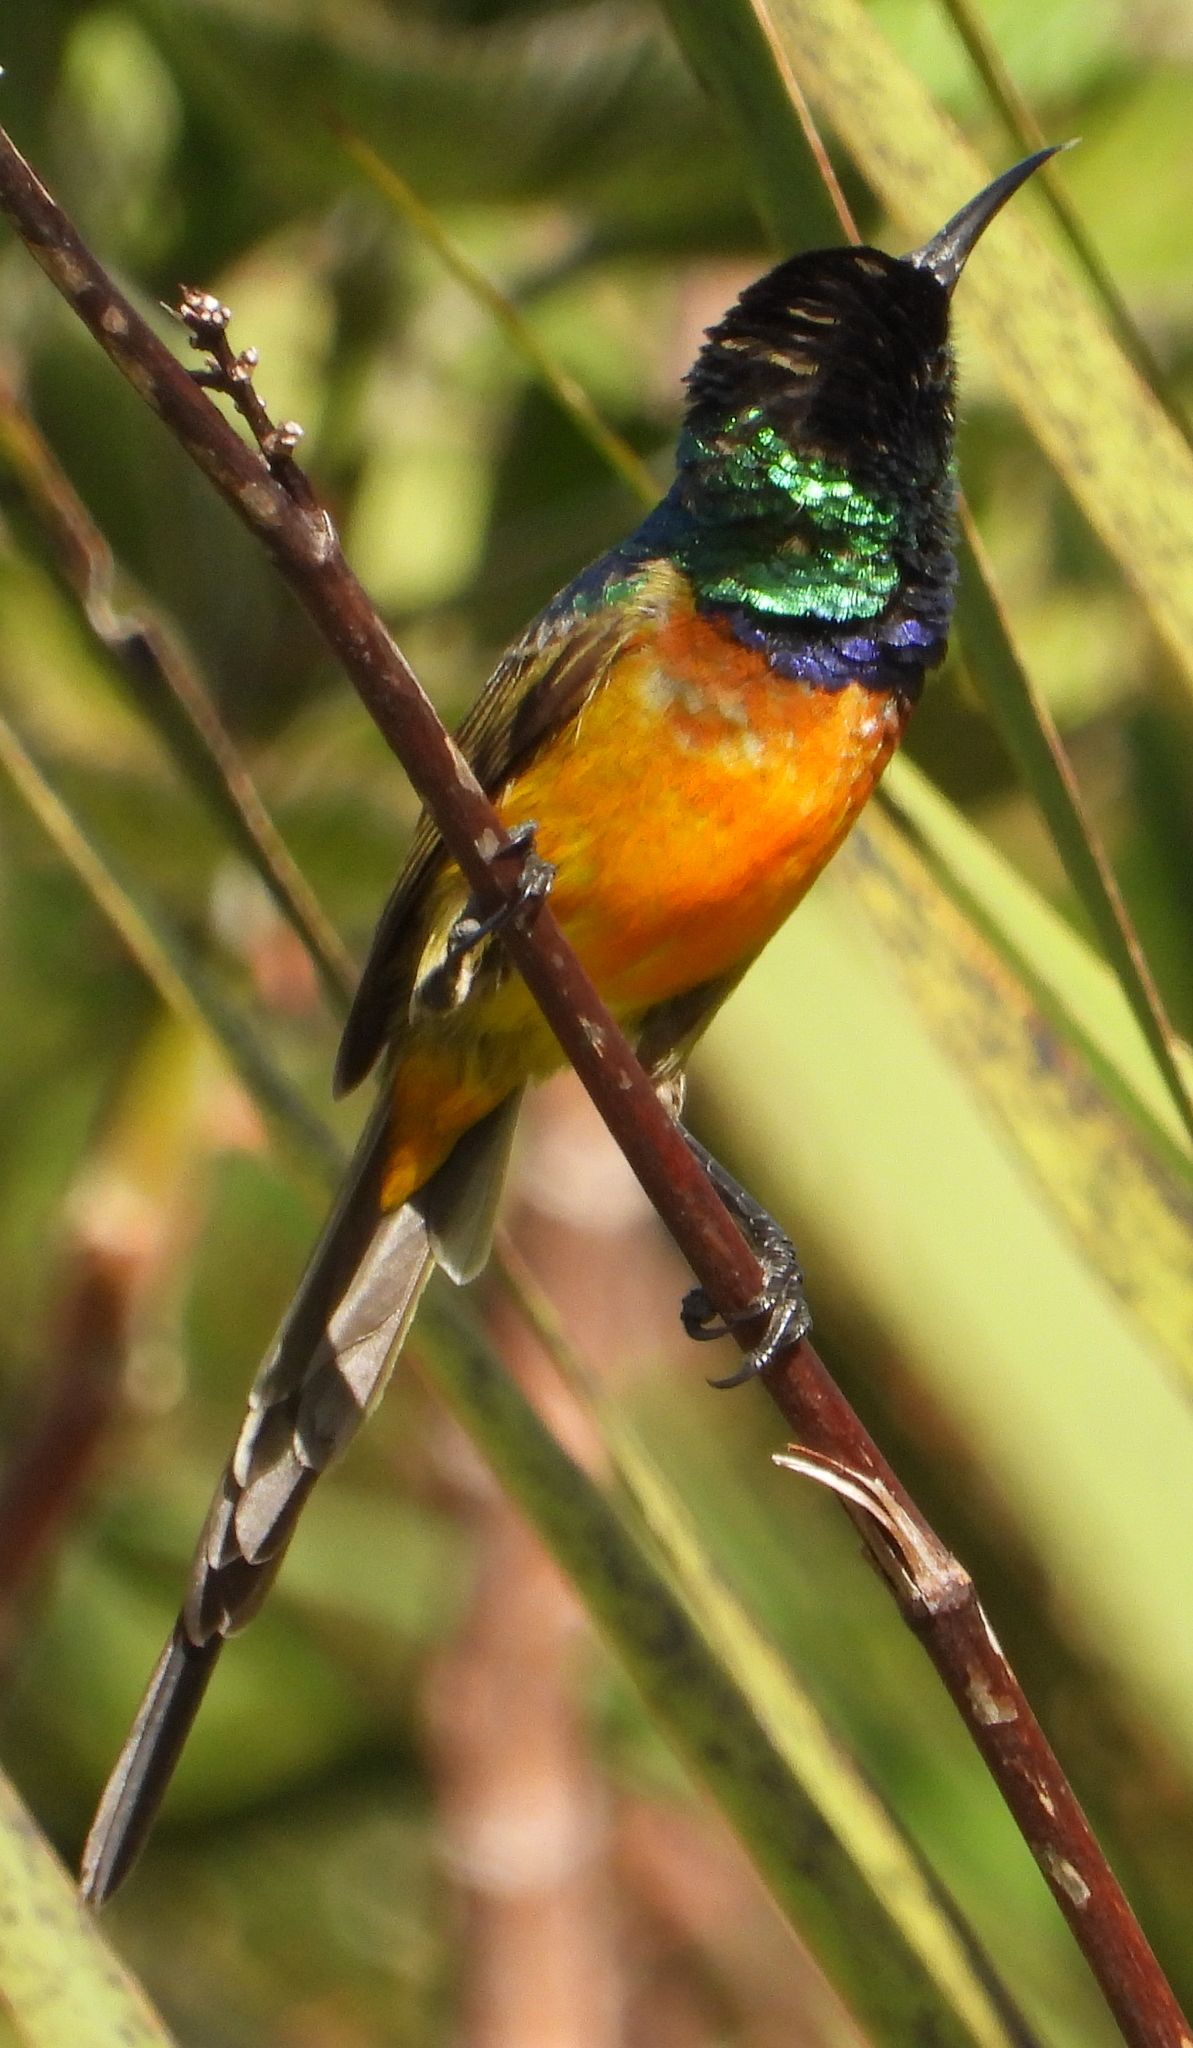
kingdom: Animalia
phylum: Chordata
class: Aves
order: Passeriformes
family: Nectariniidae
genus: Anthobaphes
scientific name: Anthobaphes violacea
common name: Orange-breasted sunbird
